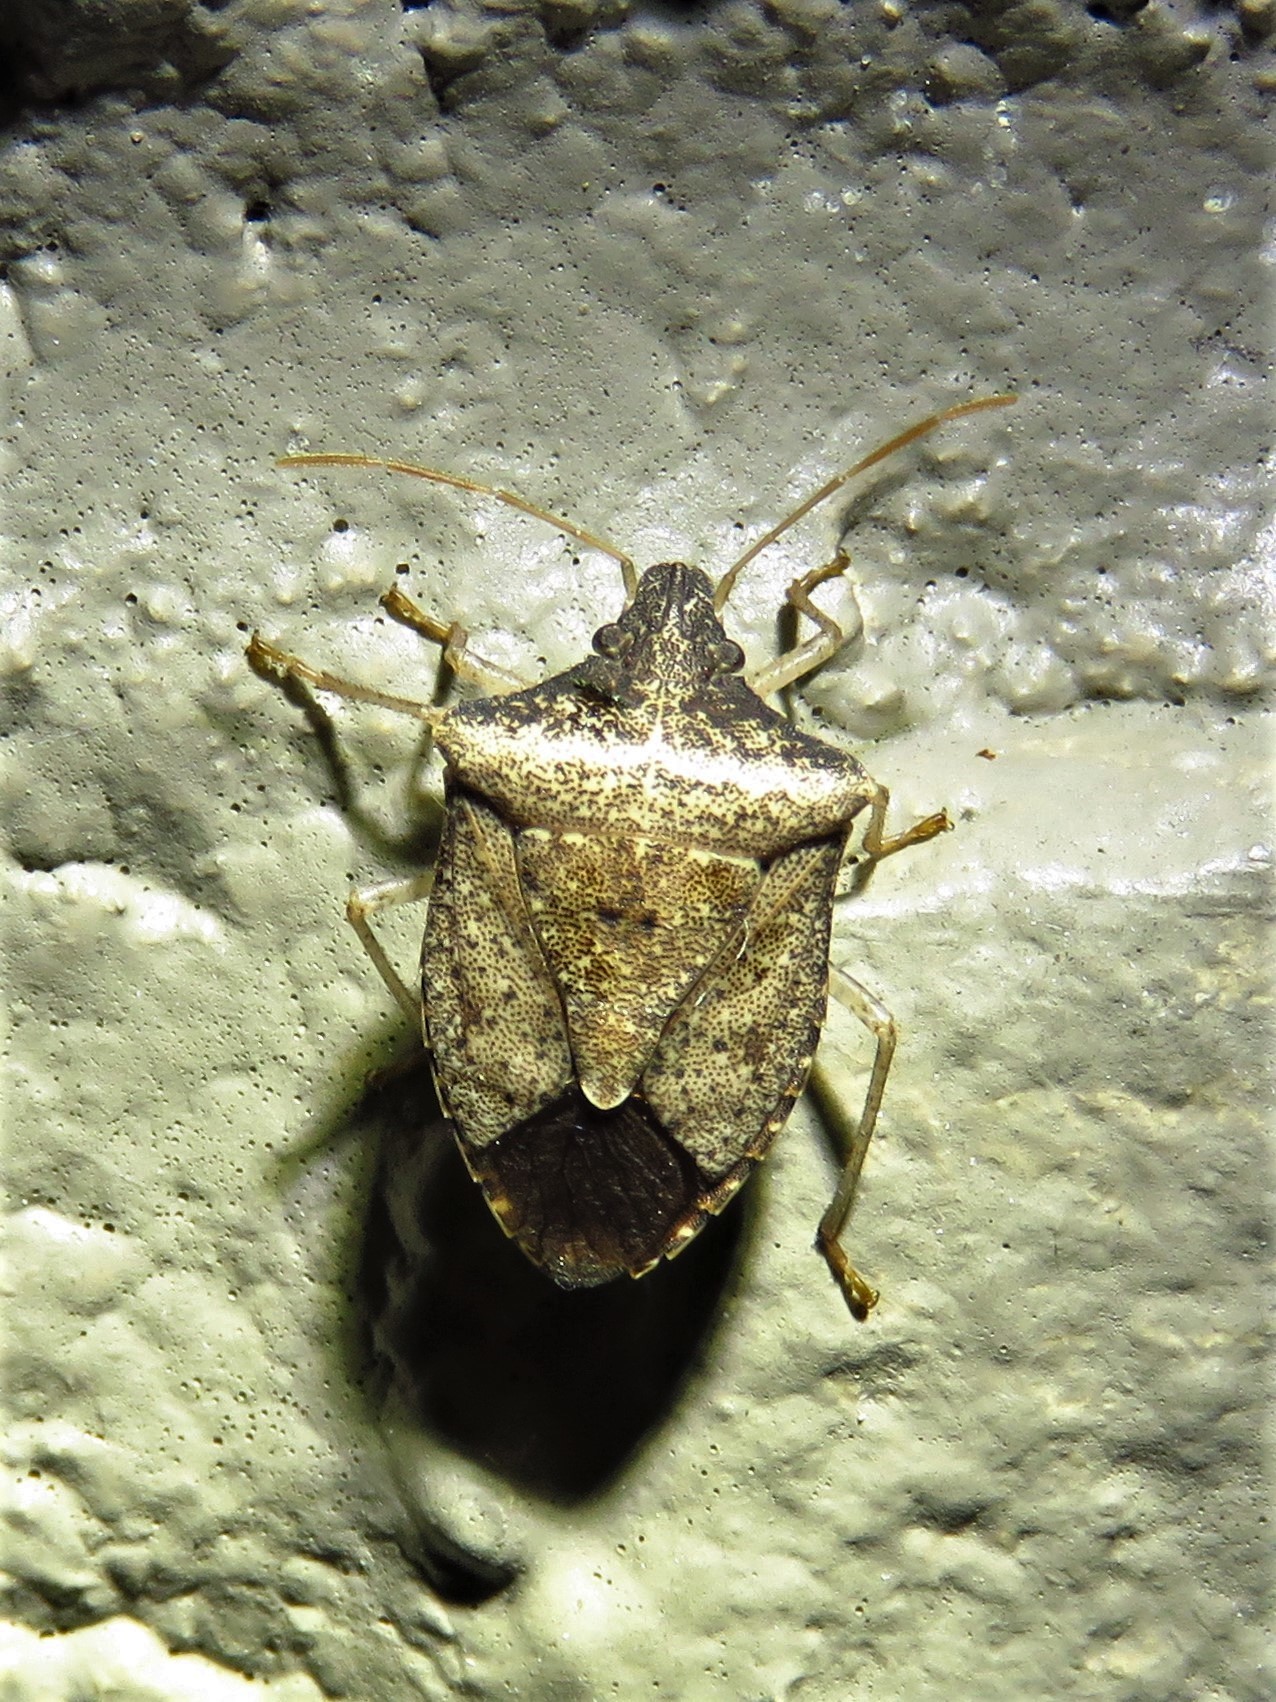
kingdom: Animalia
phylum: Arthropoda
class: Insecta
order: Hemiptera
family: Pentatomidae
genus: Euschistus
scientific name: Euschistus obscurus
